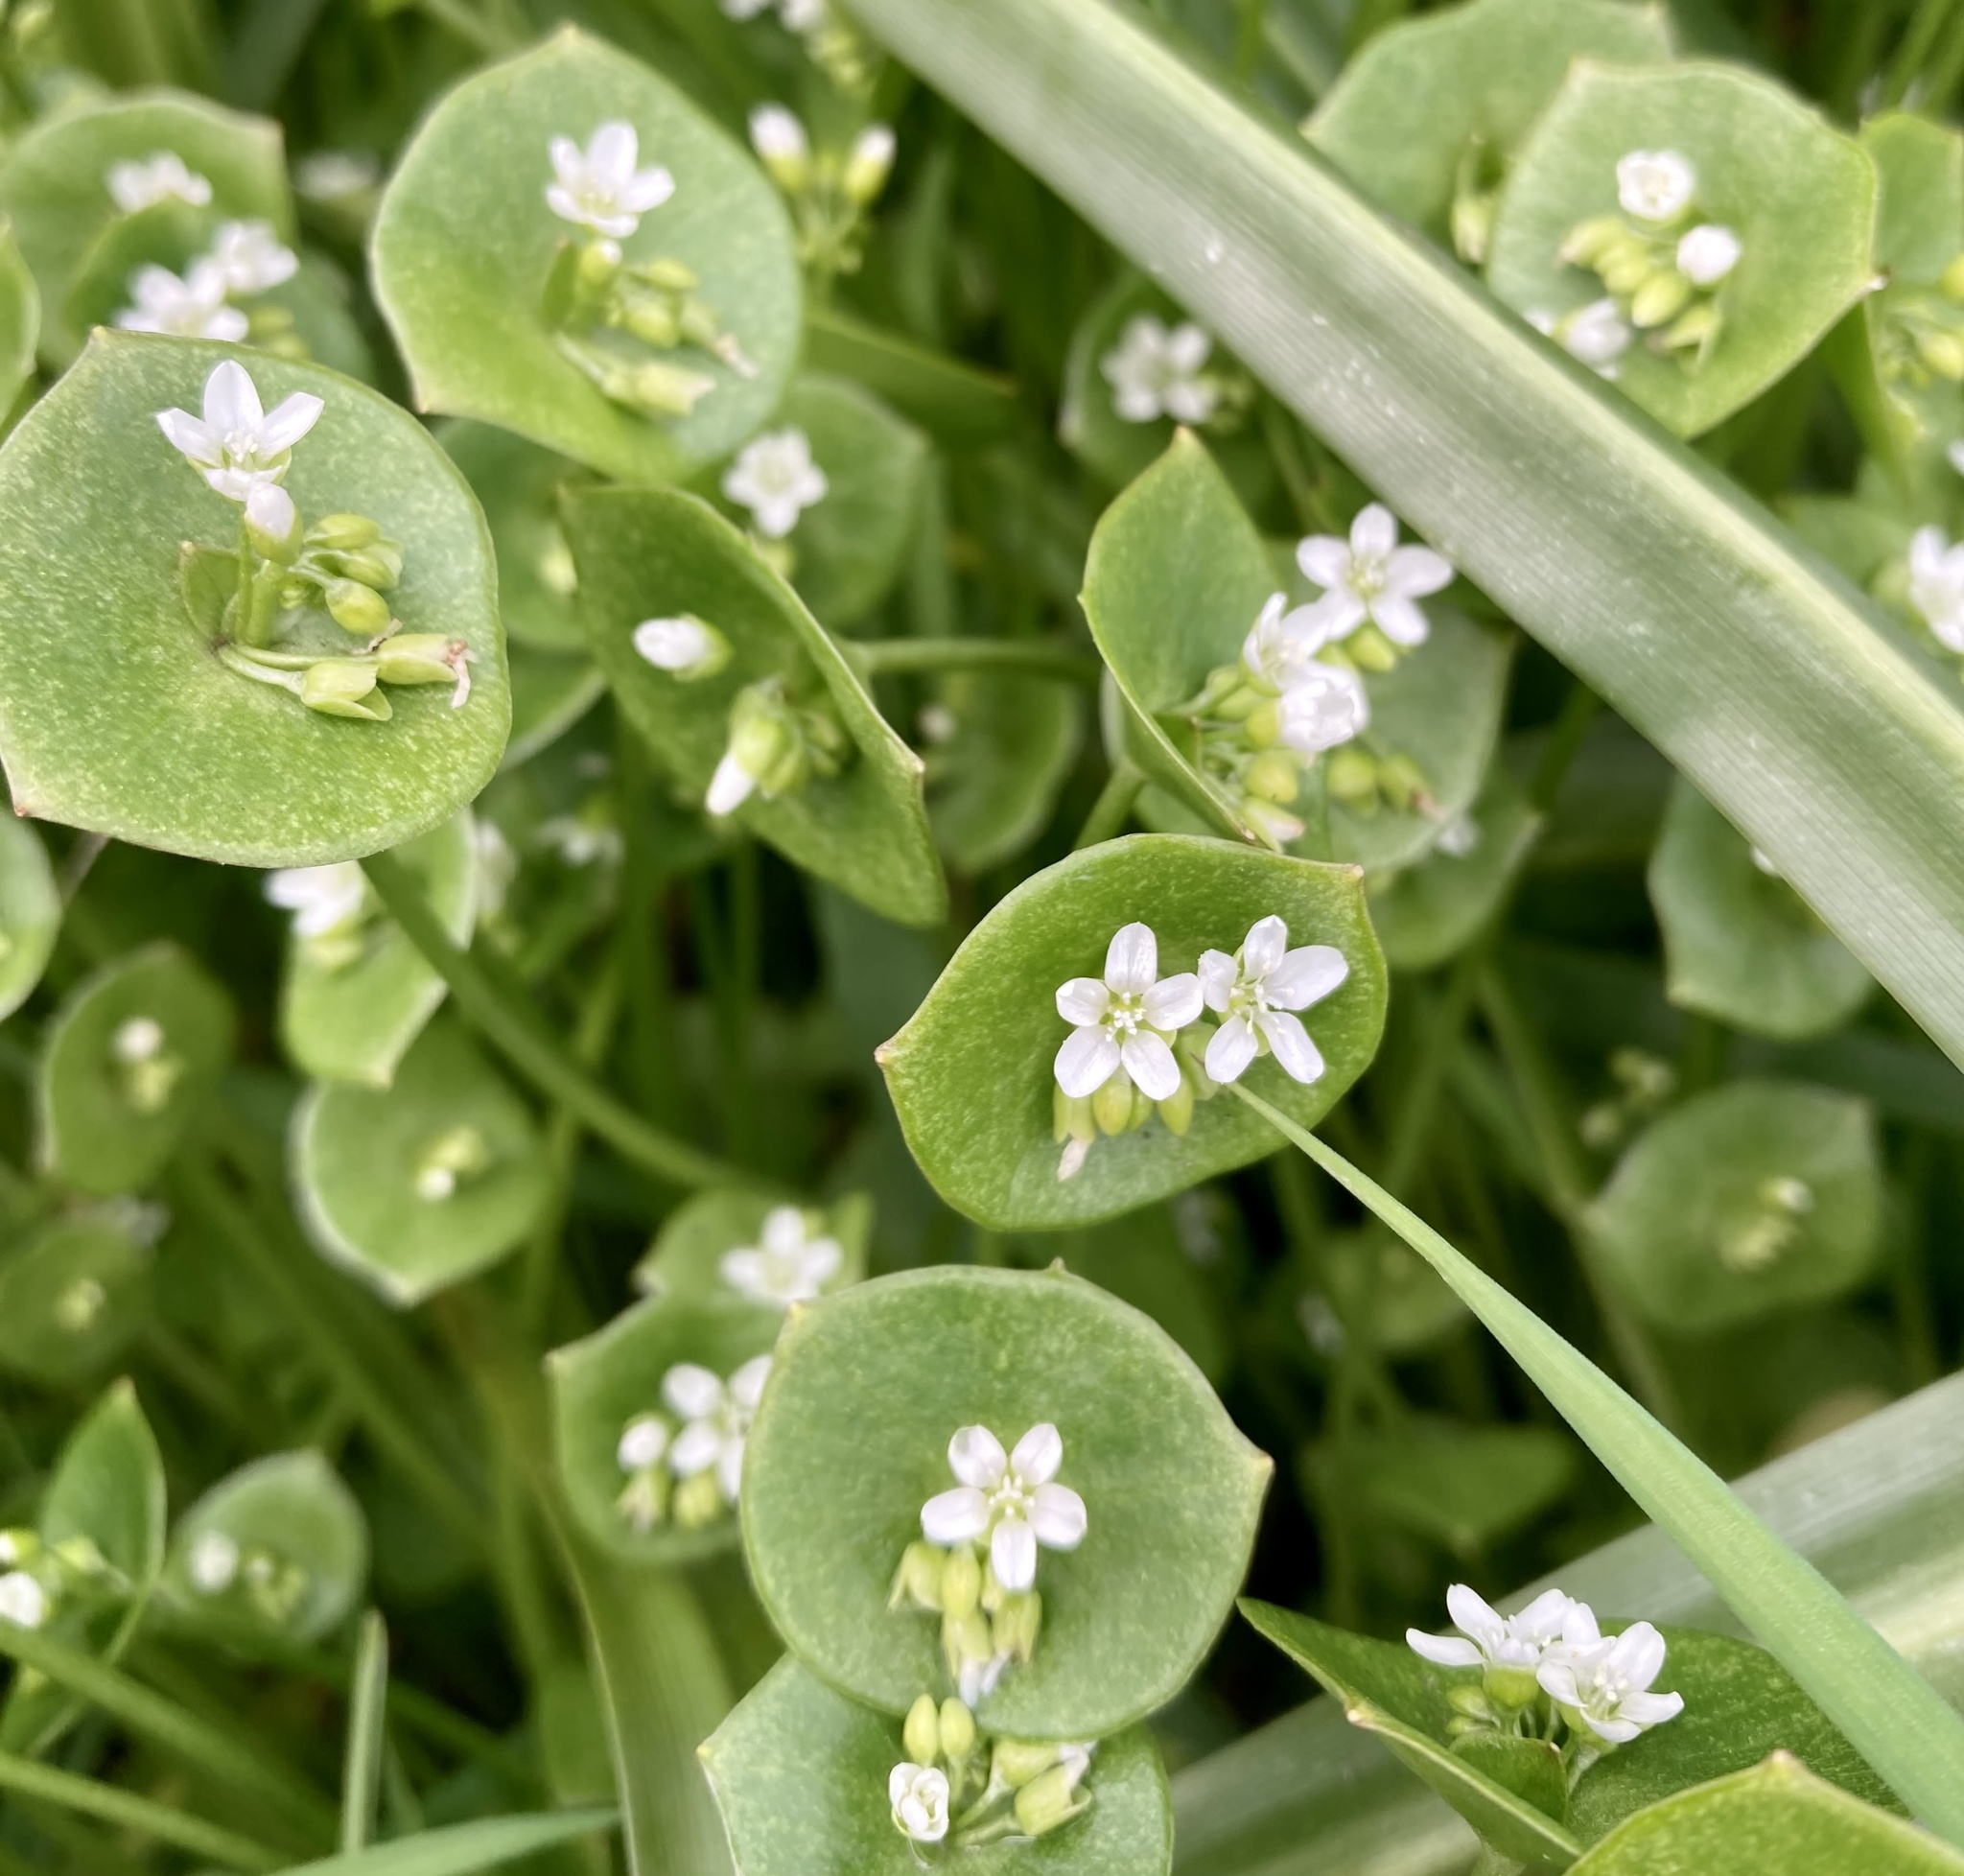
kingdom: Plantae
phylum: Tracheophyta
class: Magnoliopsida
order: Caryophyllales
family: Montiaceae
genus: Claytonia
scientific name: Claytonia perfoliata
